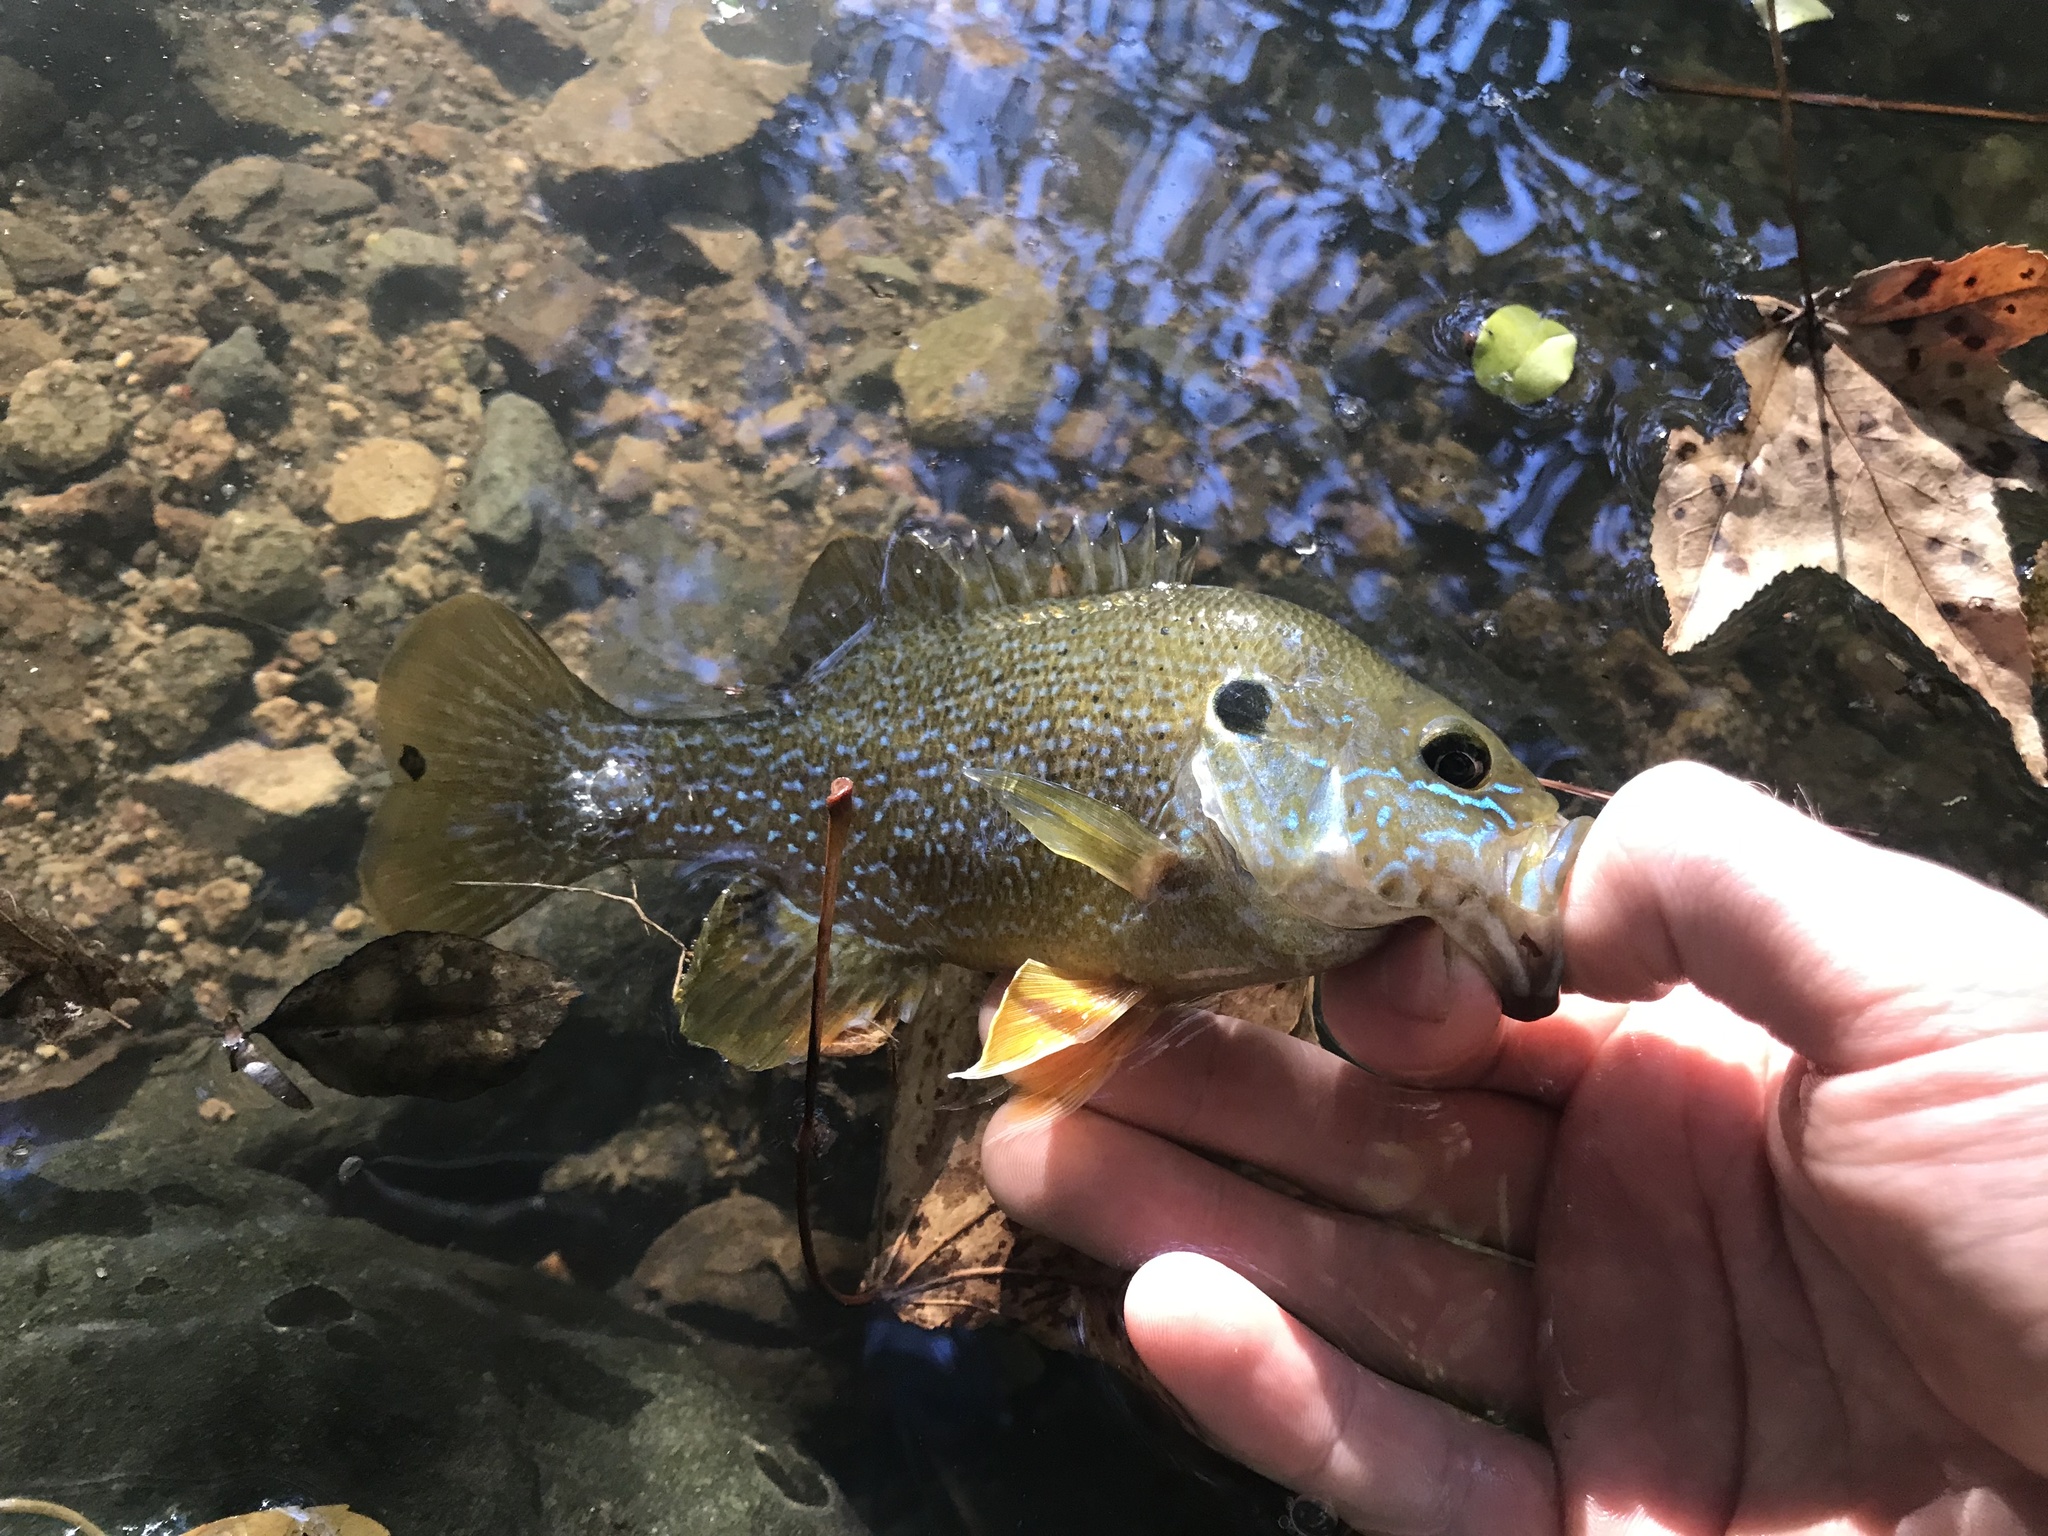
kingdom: Animalia
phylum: Chordata
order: Perciformes
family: Centrarchidae
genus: Lepomis
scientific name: Lepomis cyanellus
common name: Green sunfish
